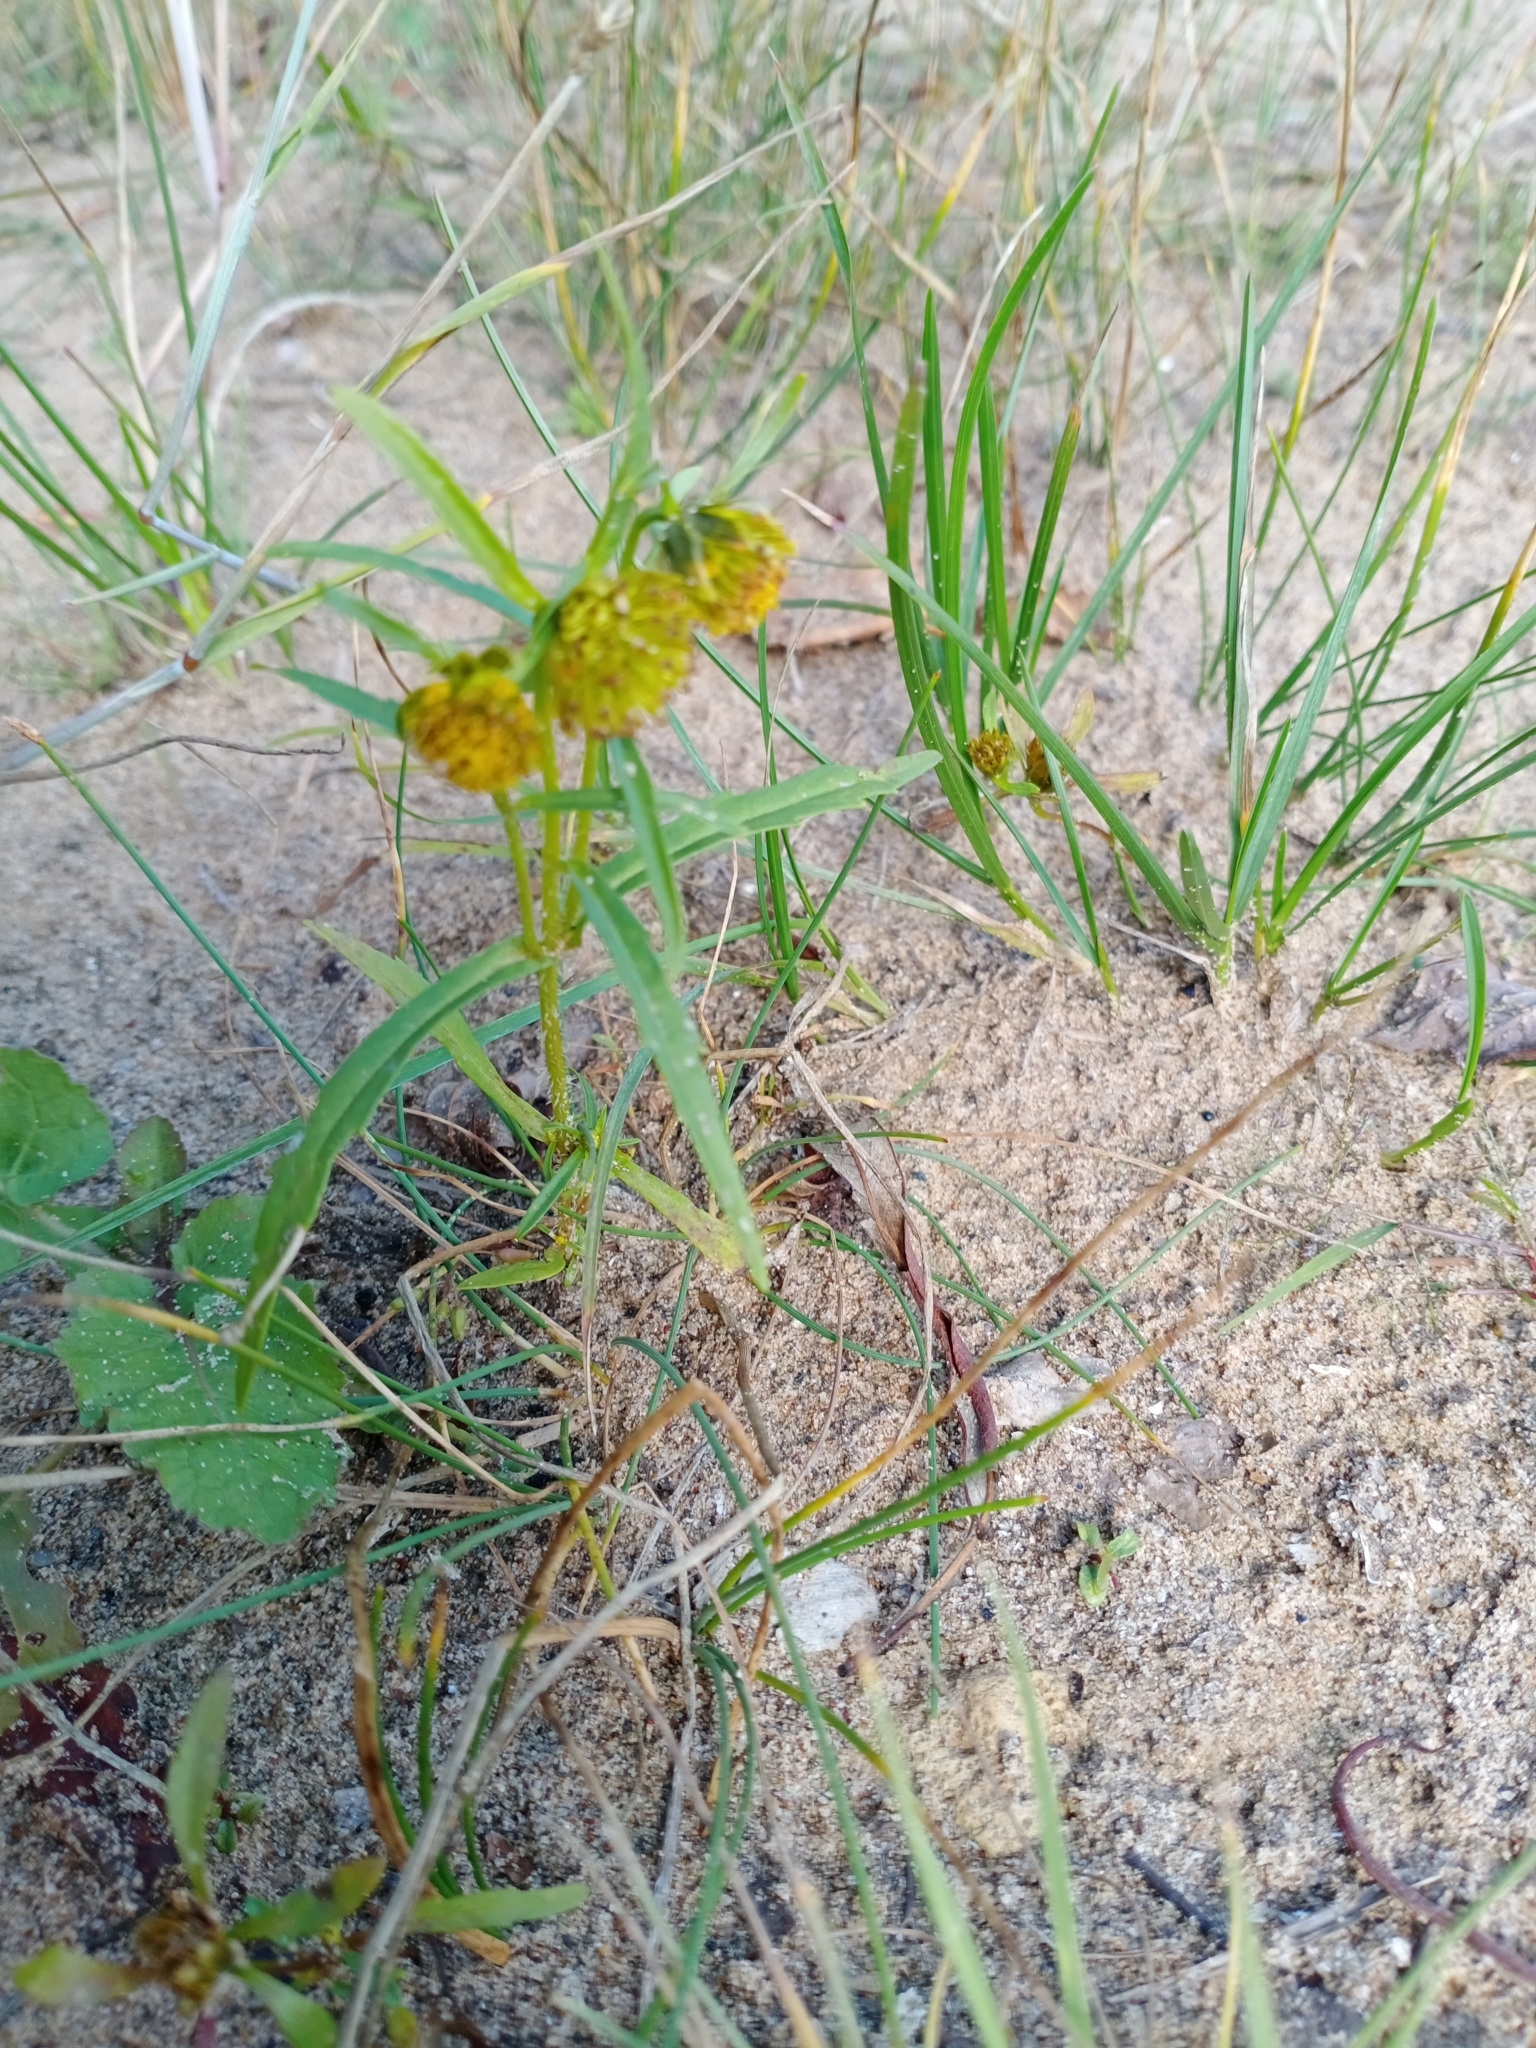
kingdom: Plantae
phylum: Tracheophyta
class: Magnoliopsida
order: Asterales
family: Asteraceae
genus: Bidens
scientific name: Bidens cernua
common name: Nodding bur-marigold
